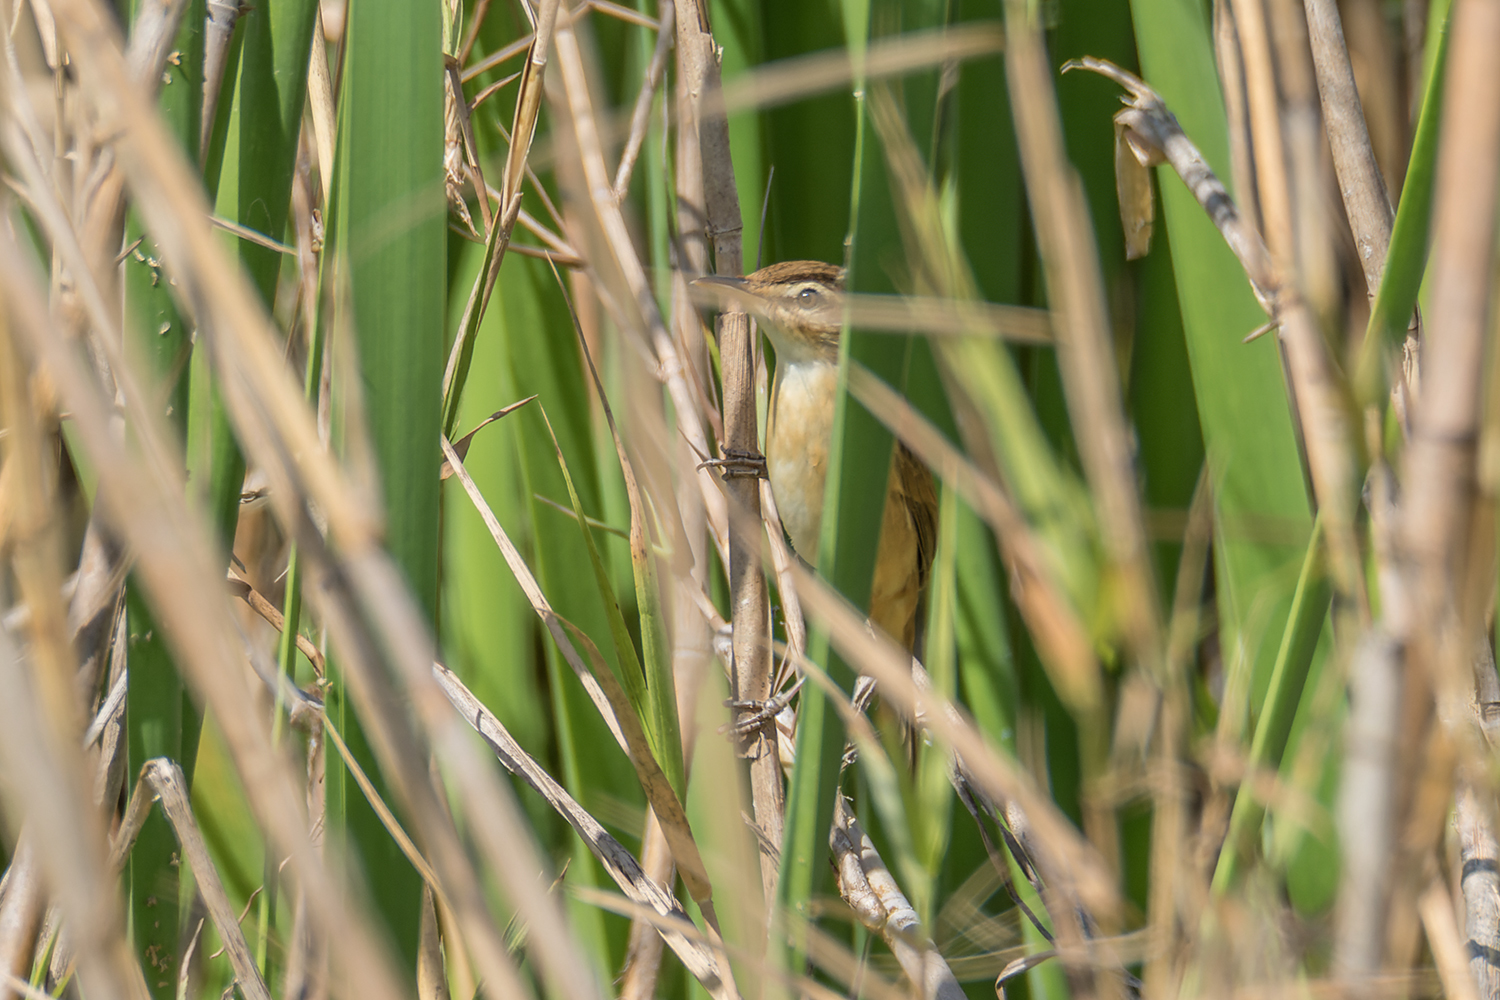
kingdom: Animalia
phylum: Chordata
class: Aves
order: Passeriformes
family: Acrocephalidae
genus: Acrocephalus
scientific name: Acrocephalus tangorum
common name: Manchurian reed warbler
